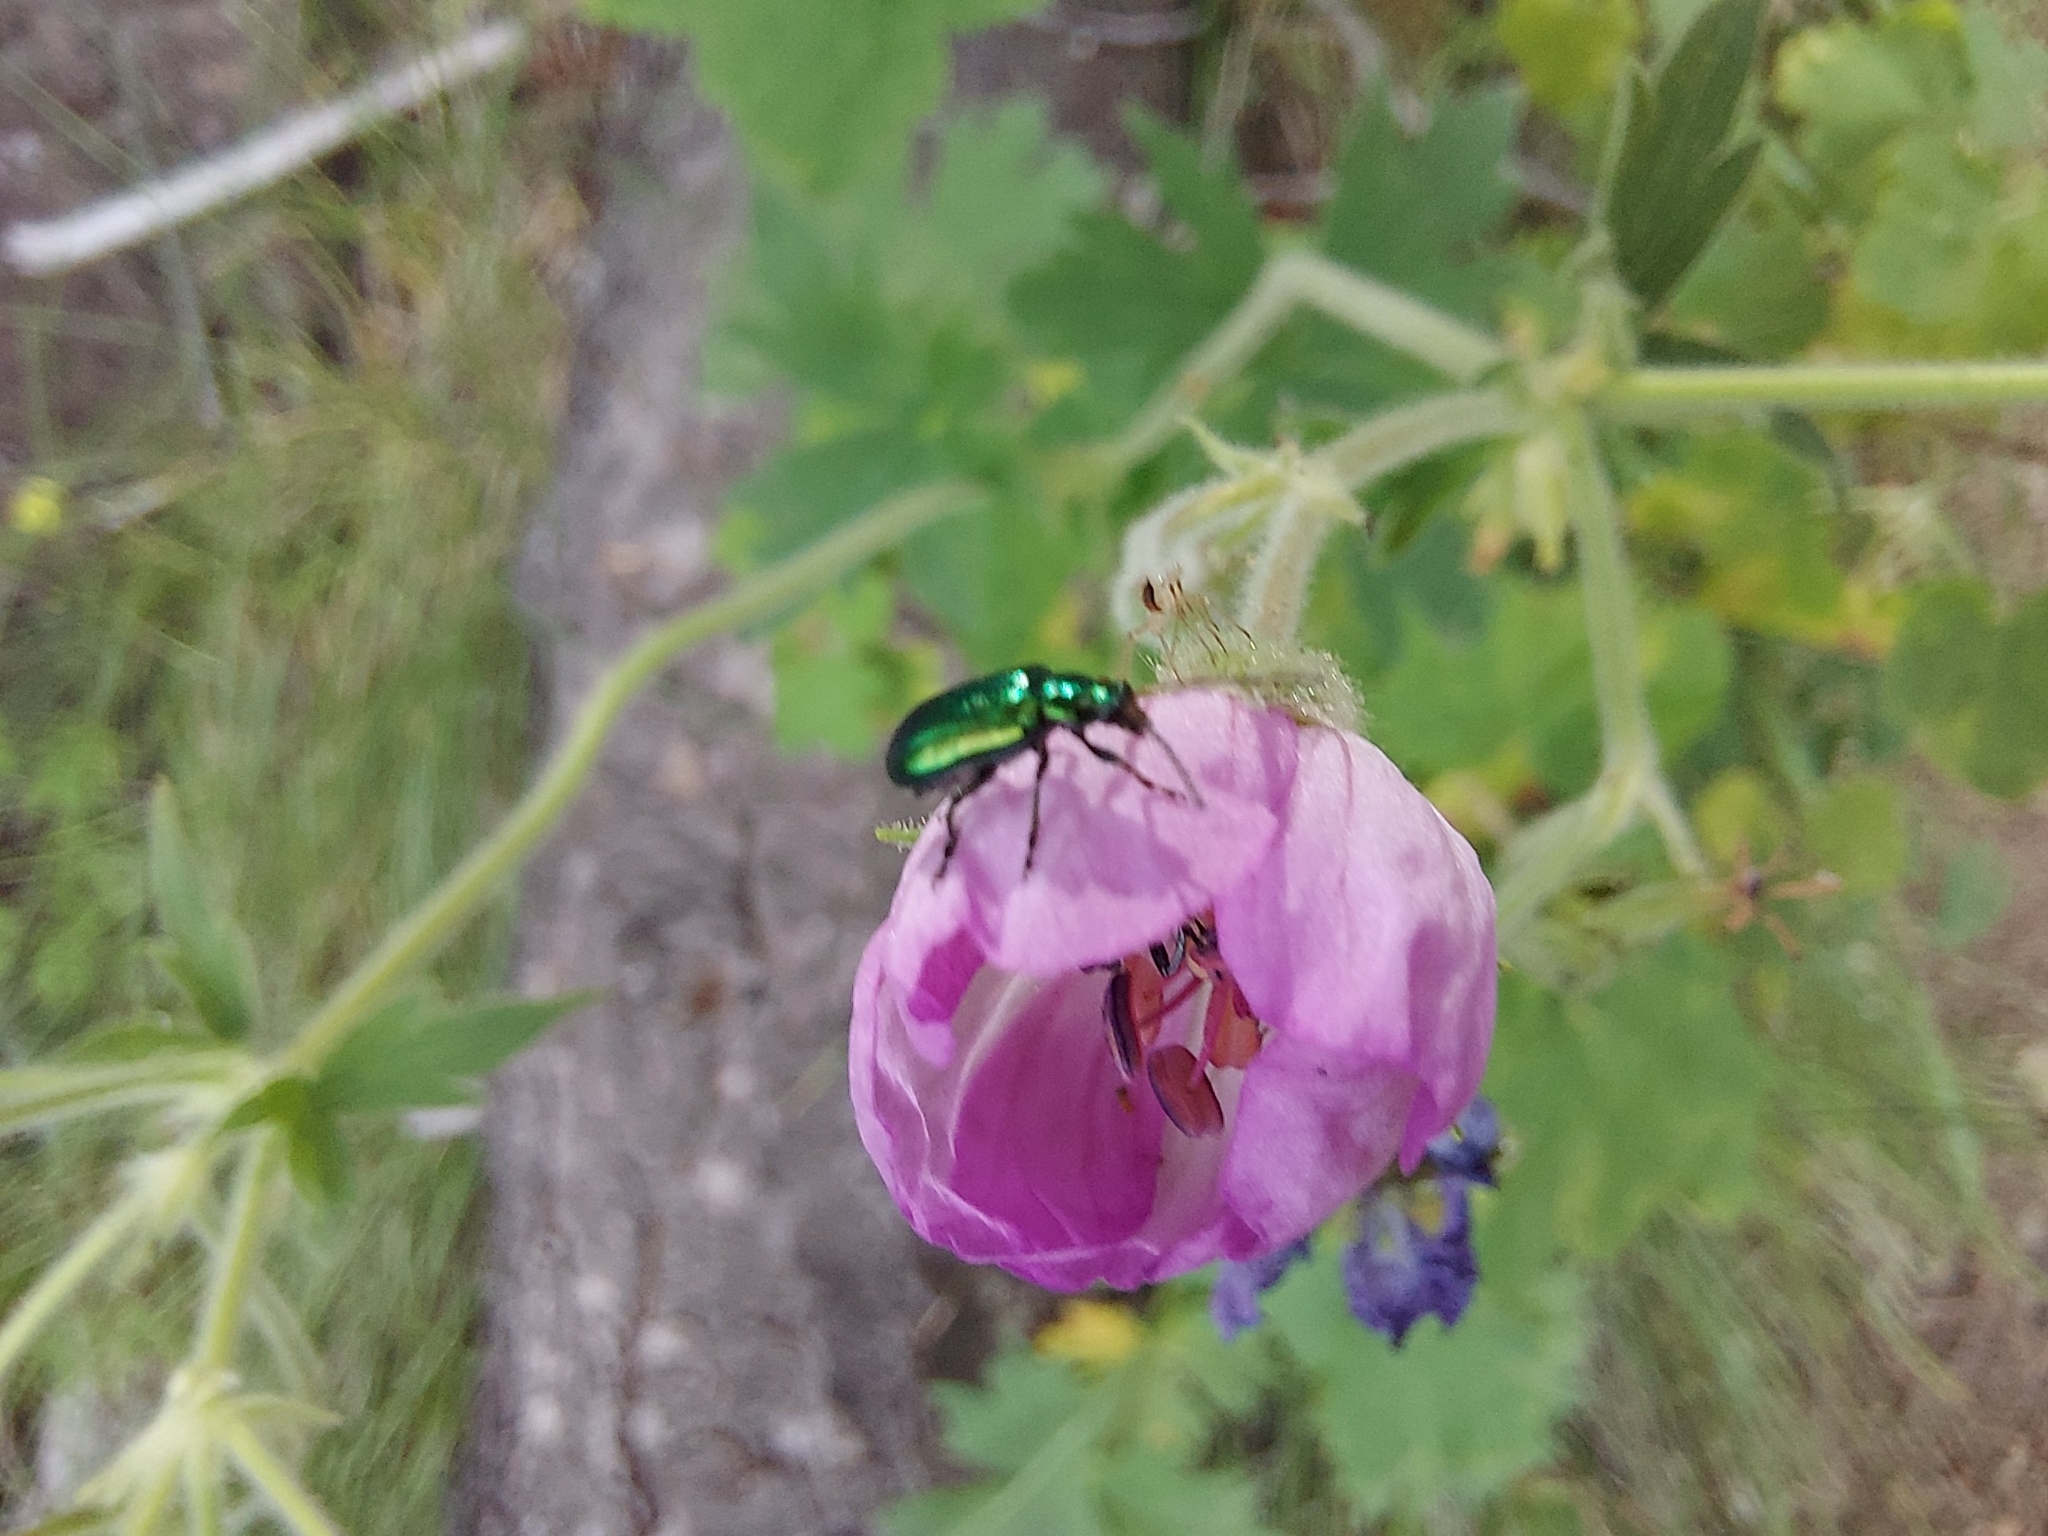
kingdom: Animalia
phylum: Arthropoda
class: Insecta
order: Coleoptera
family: Chrysomelidae
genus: Scelolyperus
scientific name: Scelolyperus schwarzi
